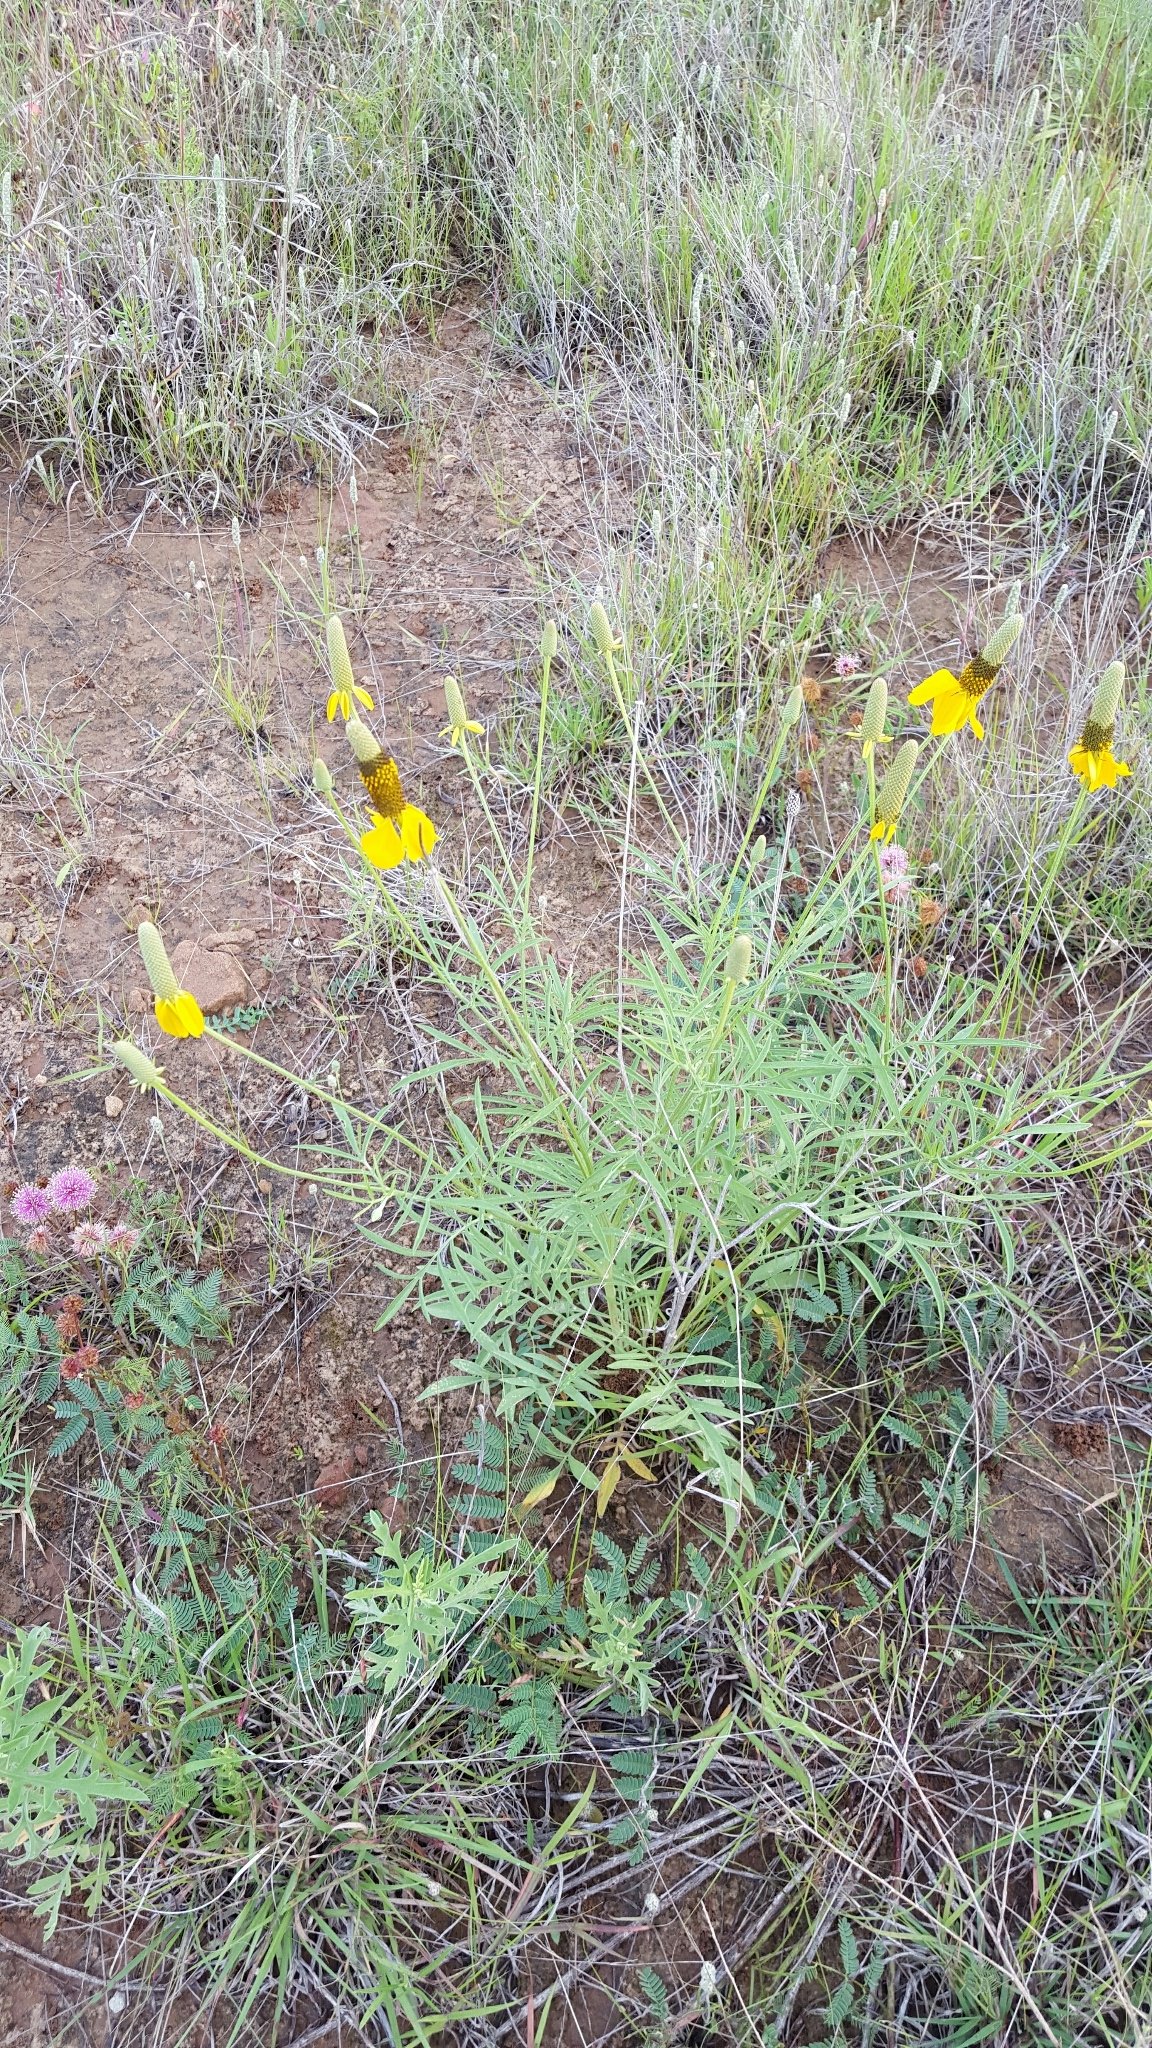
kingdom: Plantae
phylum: Tracheophyta
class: Magnoliopsida
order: Asterales
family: Asteraceae
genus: Ratibida
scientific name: Ratibida columnifera
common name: Prairie coneflower
